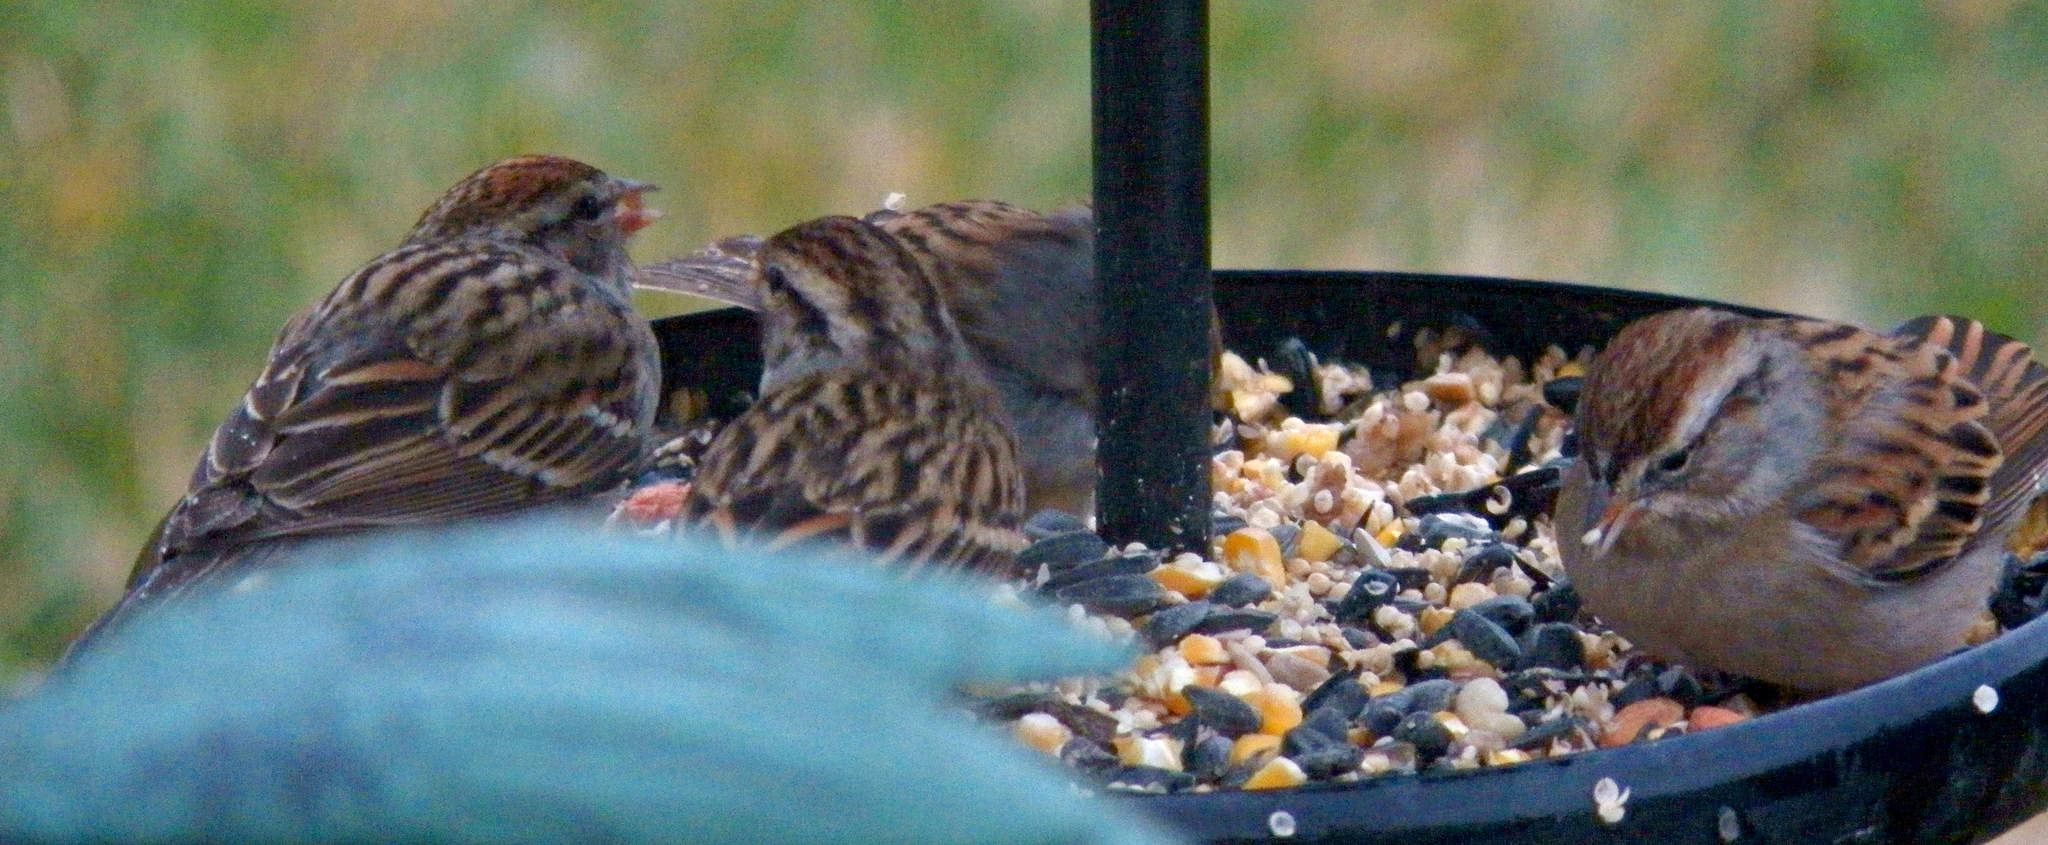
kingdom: Animalia
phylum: Chordata
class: Aves
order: Passeriformes
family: Passerellidae
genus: Spizella
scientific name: Spizella passerina
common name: Chipping sparrow
